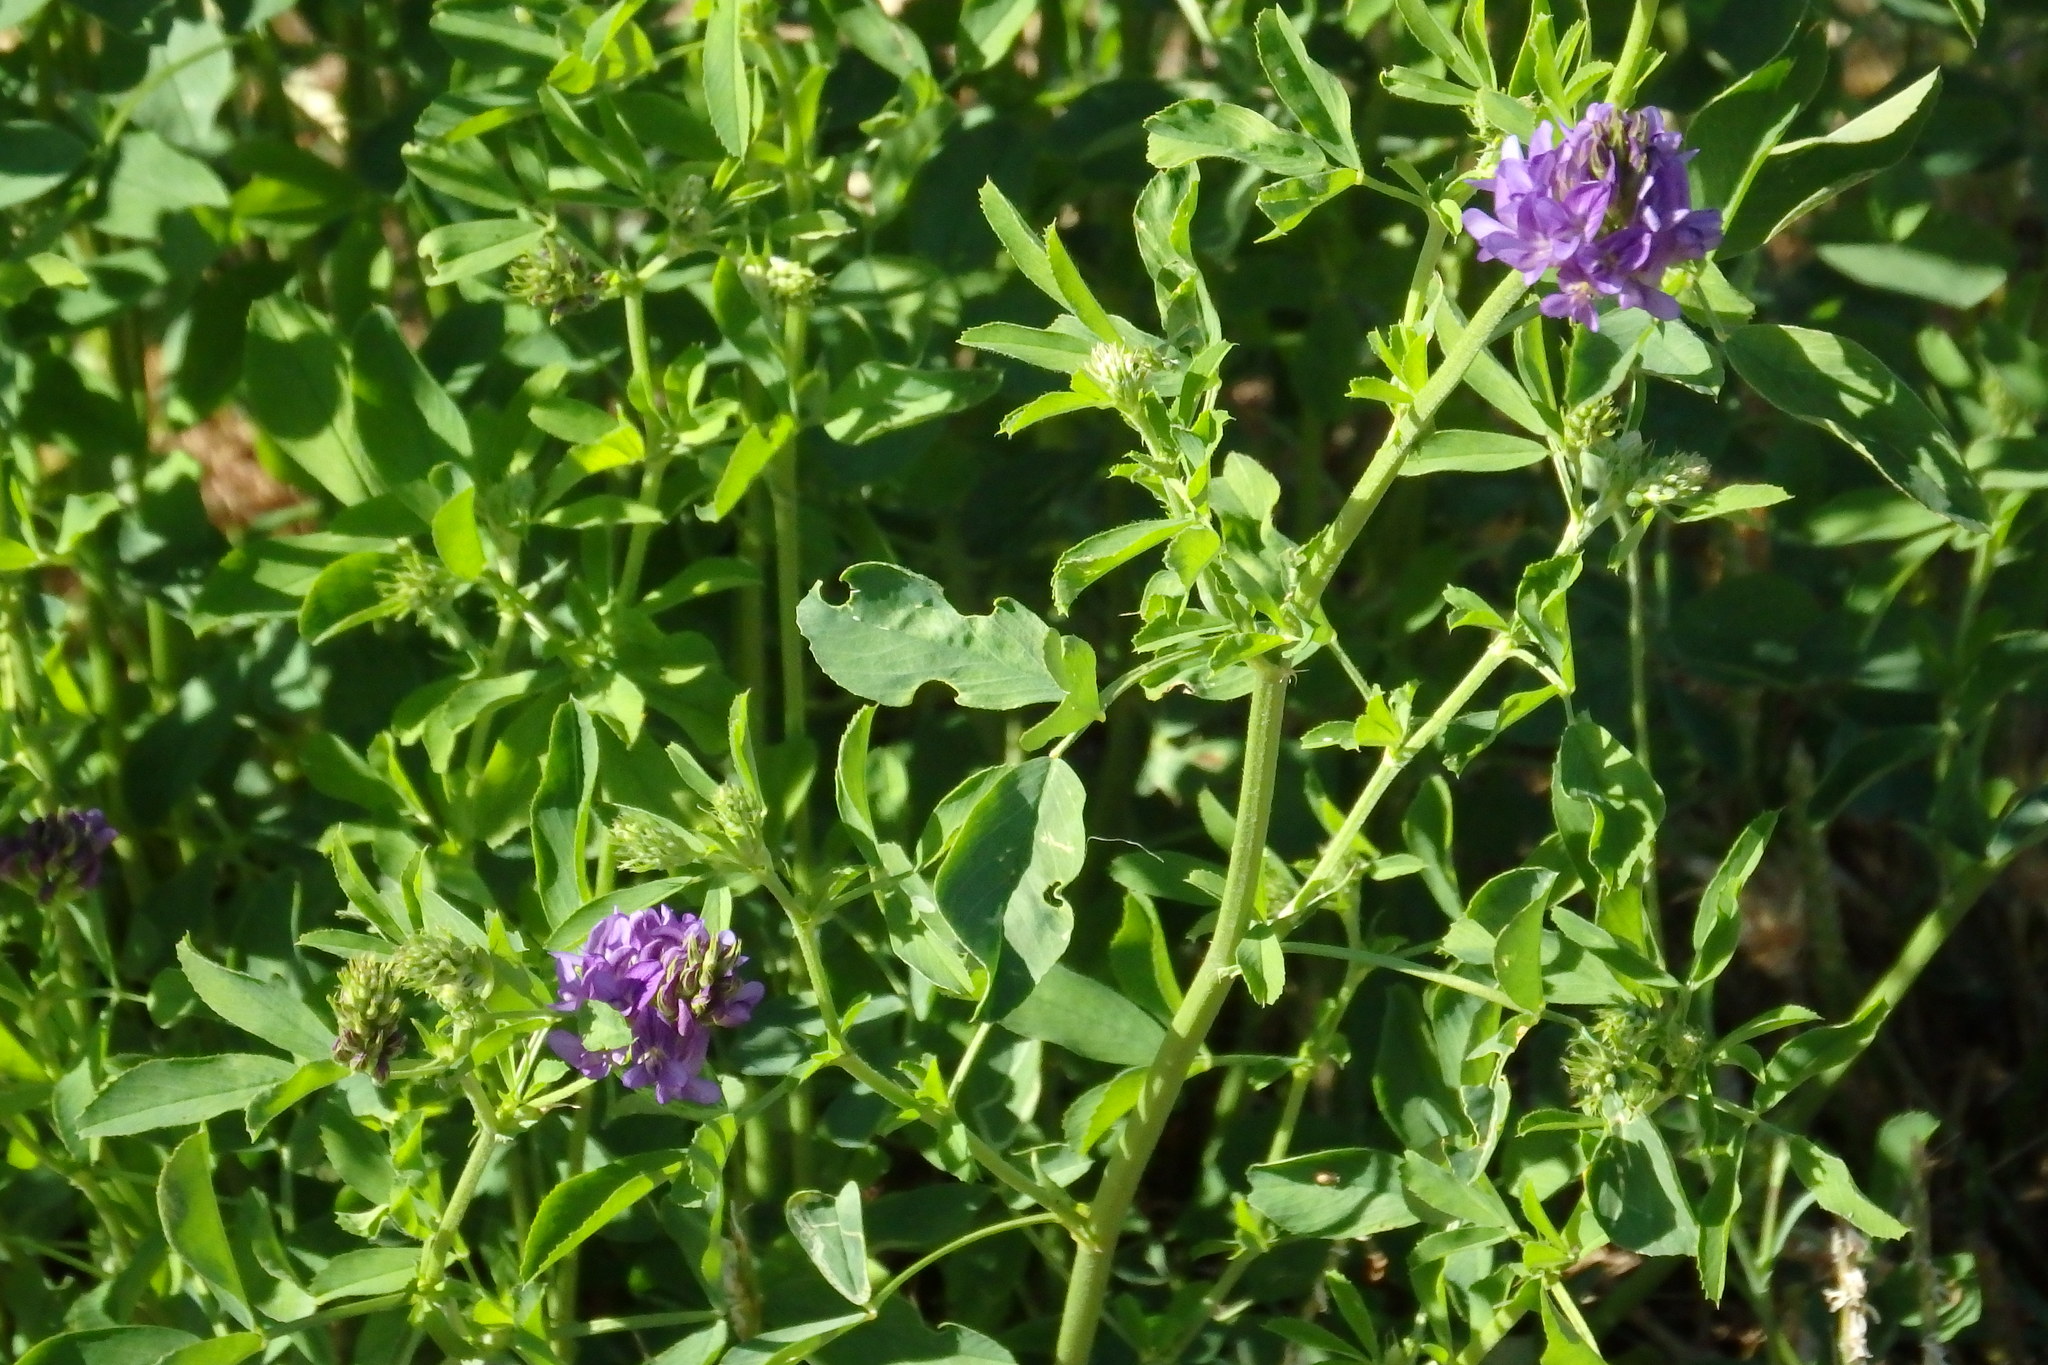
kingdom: Plantae
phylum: Tracheophyta
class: Magnoliopsida
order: Fabales
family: Fabaceae
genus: Medicago
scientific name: Medicago sativa
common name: Alfalfa
